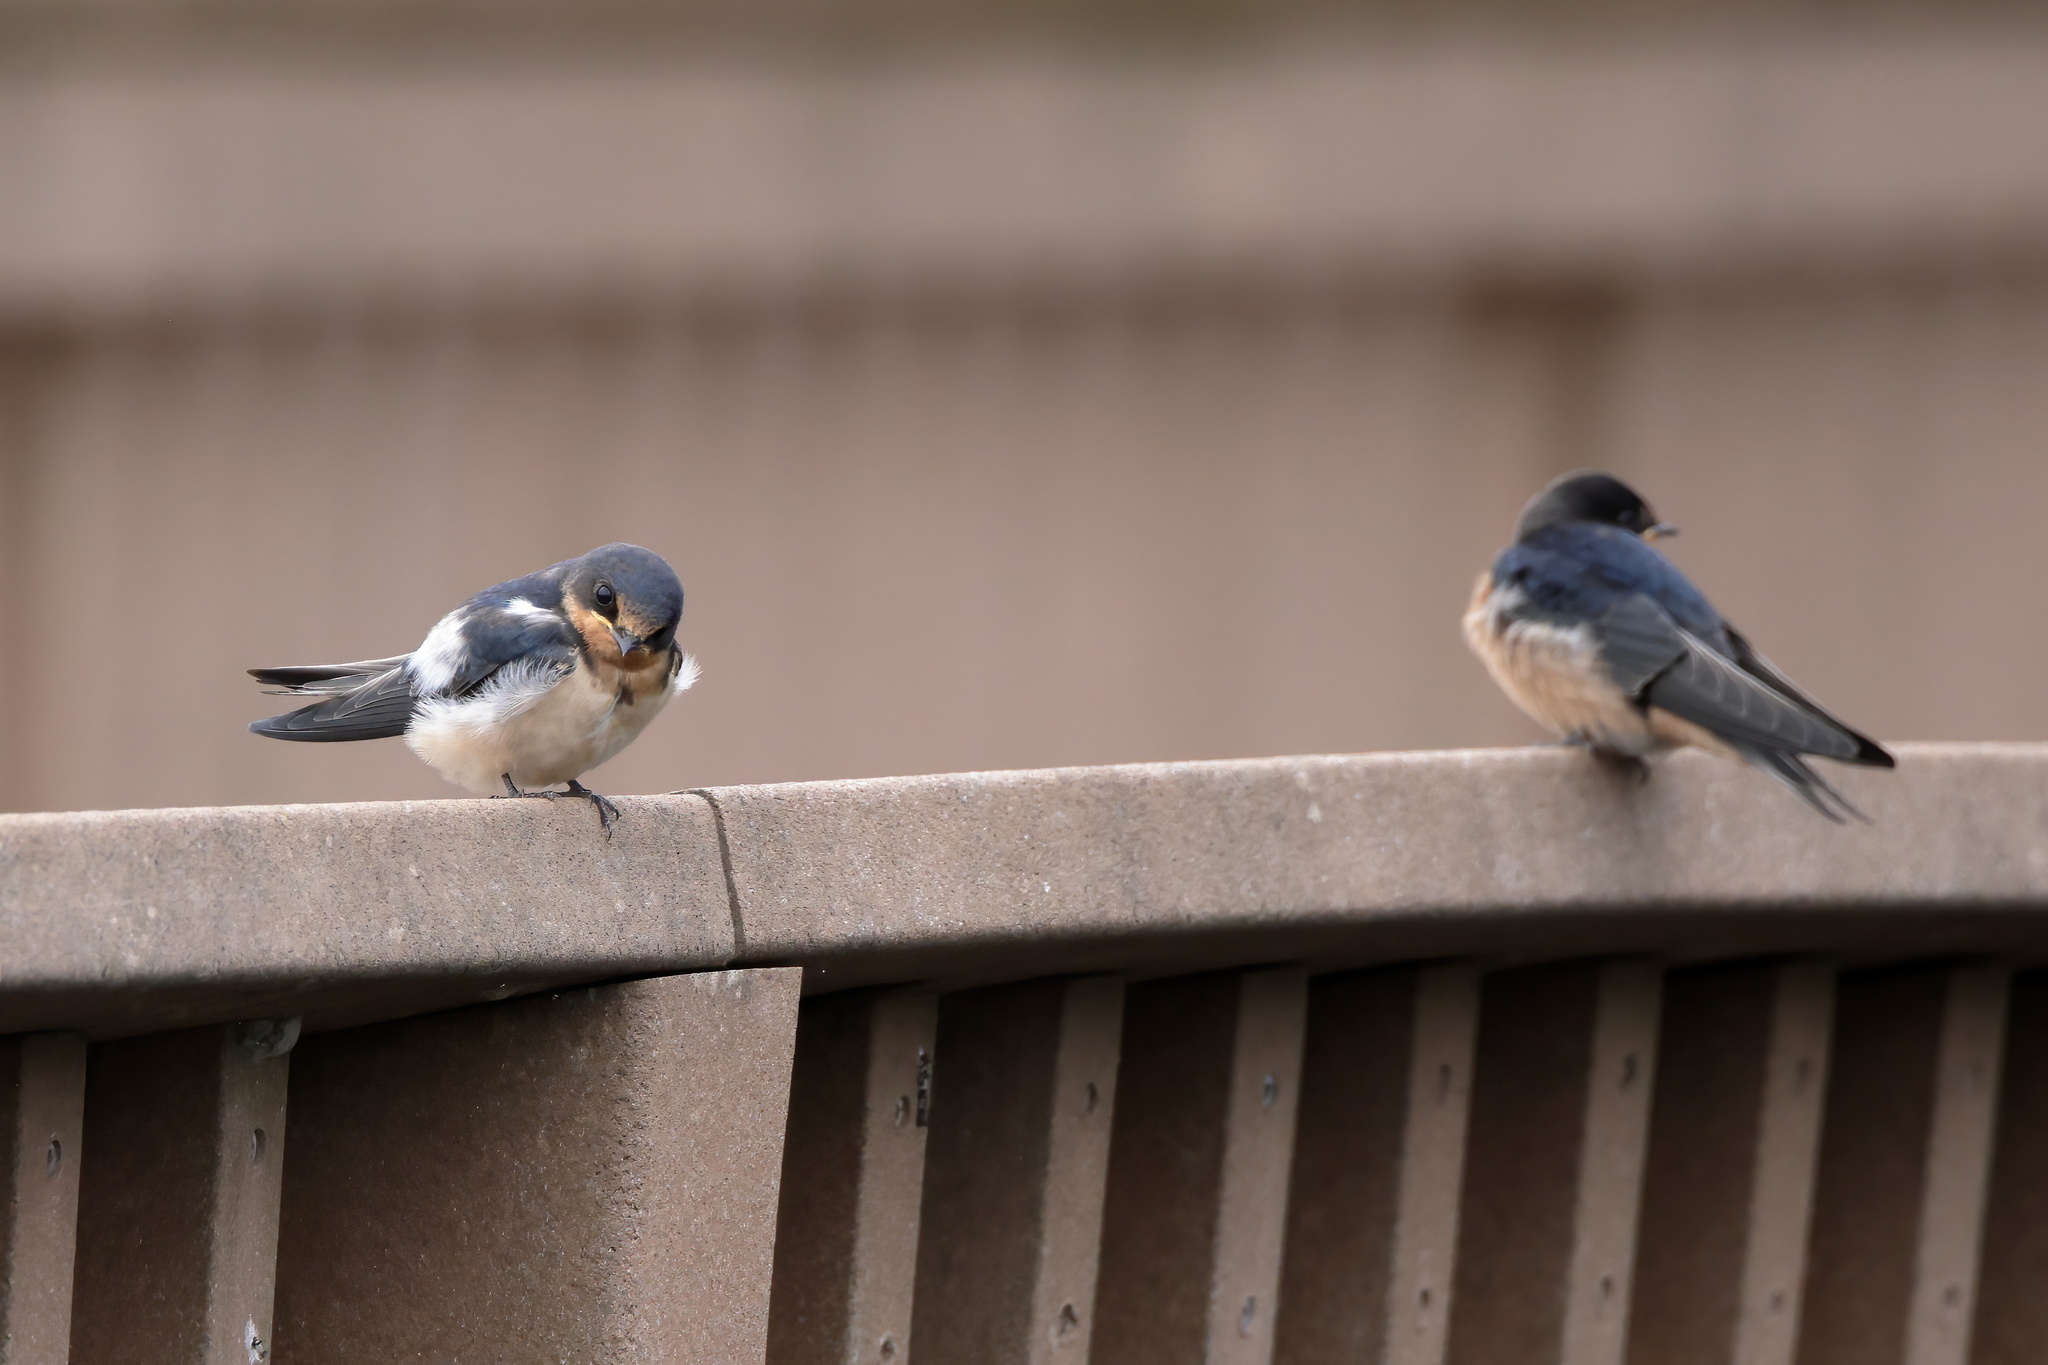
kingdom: Animalia
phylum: Chordata
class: Aves
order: Passeriformes
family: Hirundinidae
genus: Hirundo
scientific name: Hirundo rustica
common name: Barn swallow
